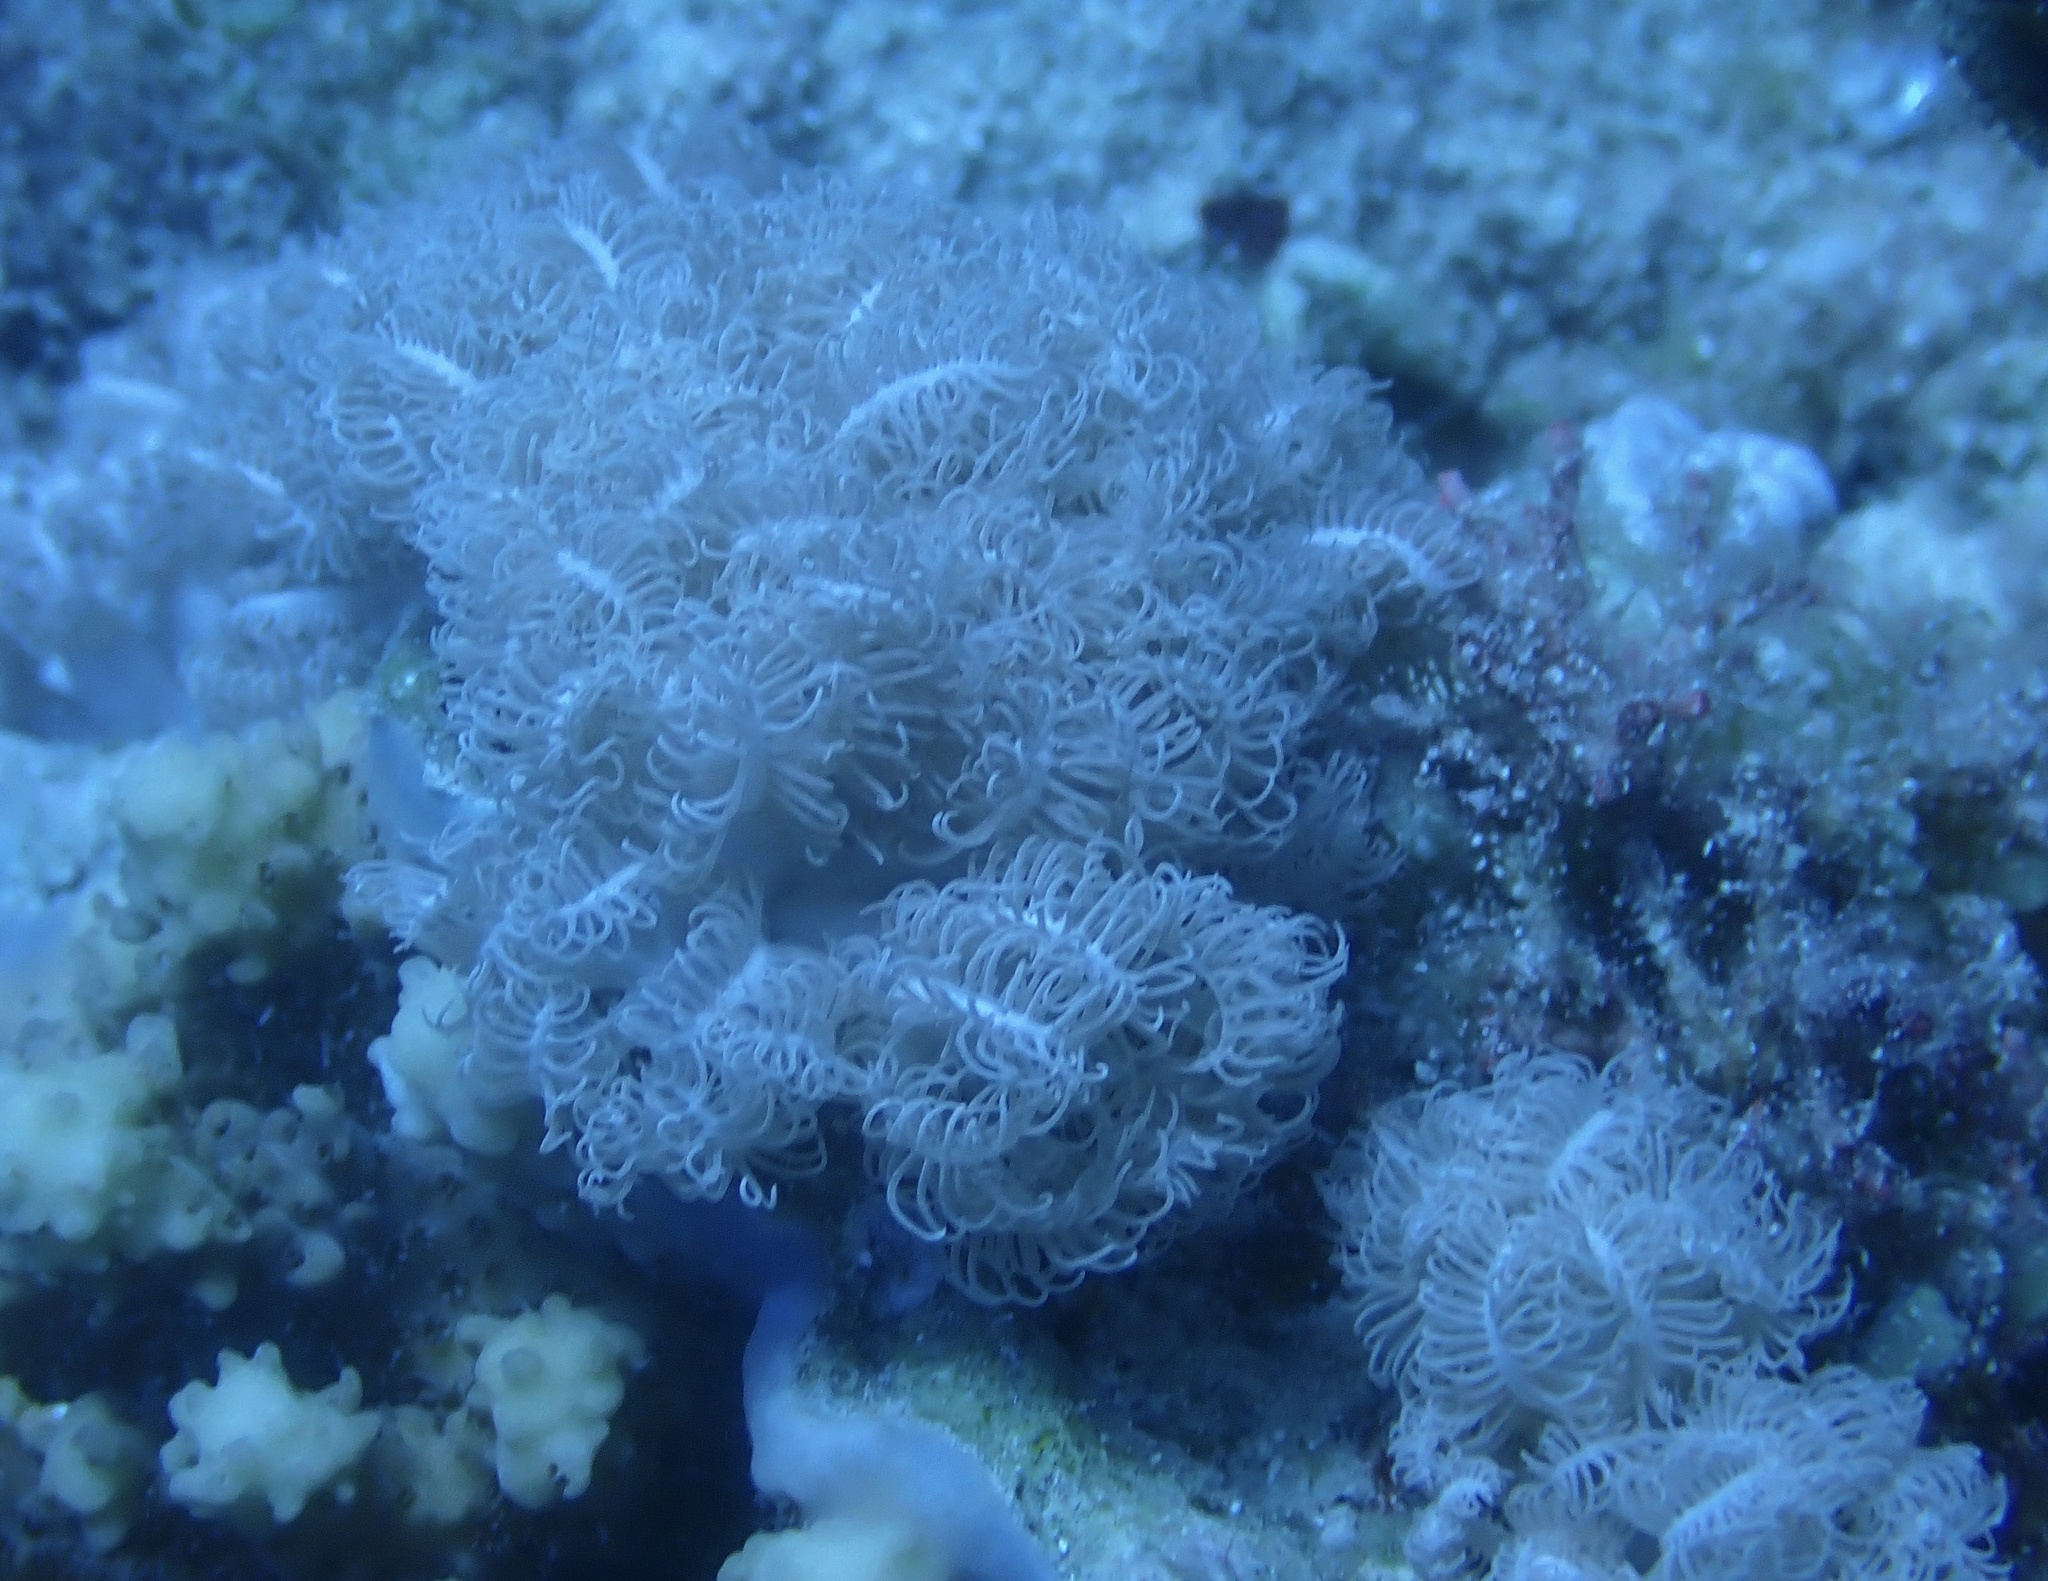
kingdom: Animalia
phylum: Cnidaria
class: Anthozoa
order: Malacalcyonacea
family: Xeniidae
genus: Anthelia
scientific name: Anthelia glauca
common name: Pulse coral
